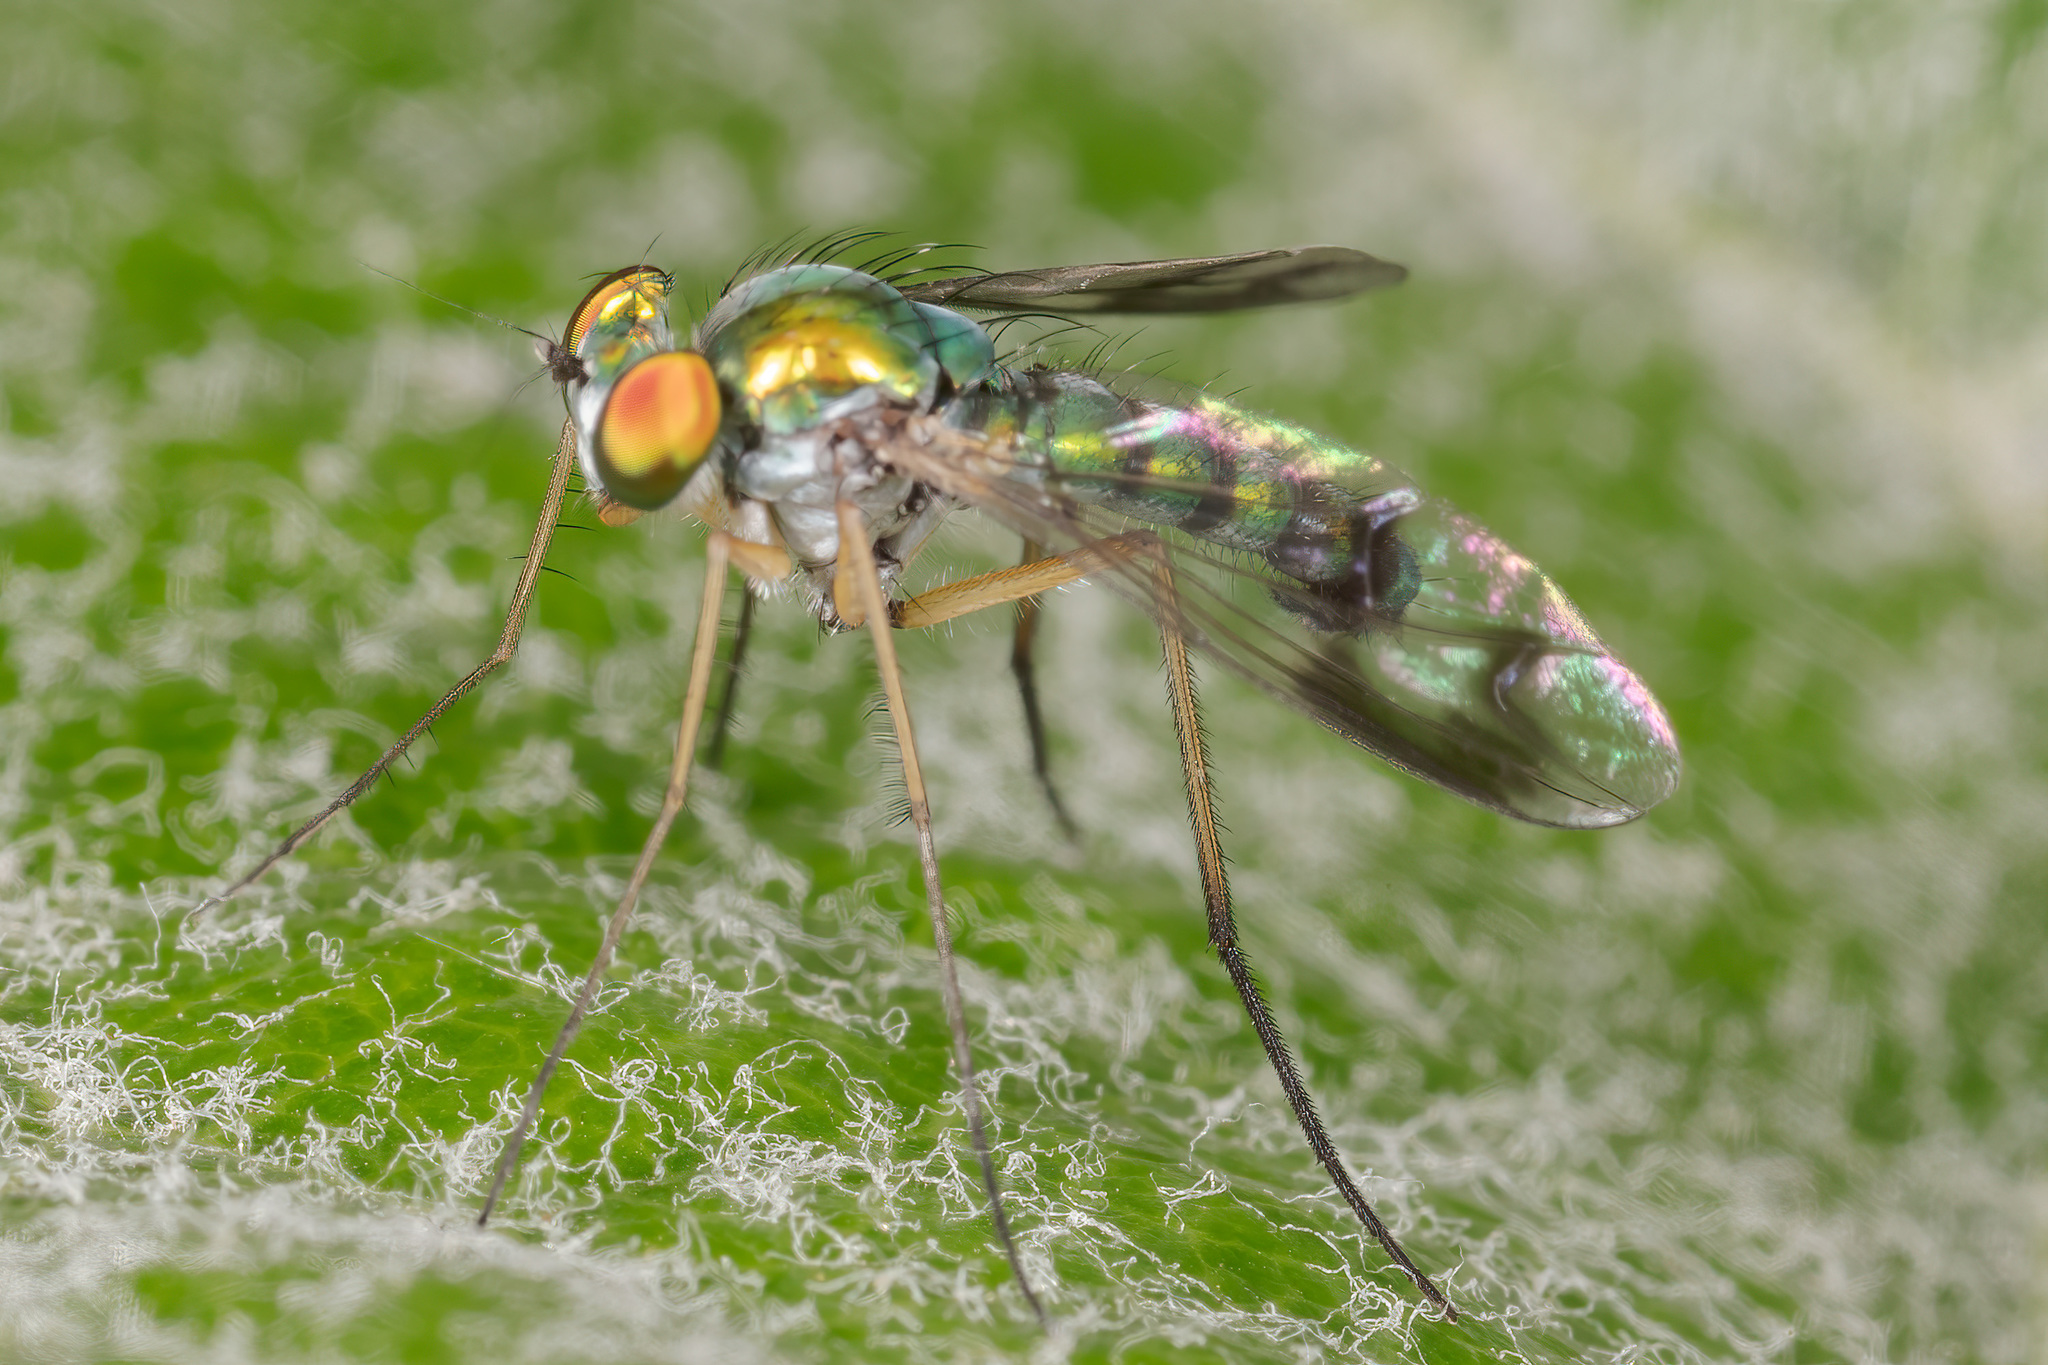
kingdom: Animalia
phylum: Arthropoda
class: Insecta
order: Diptera
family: Dolichopodidae
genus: Condylostylus
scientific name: Condylostylus sipho
